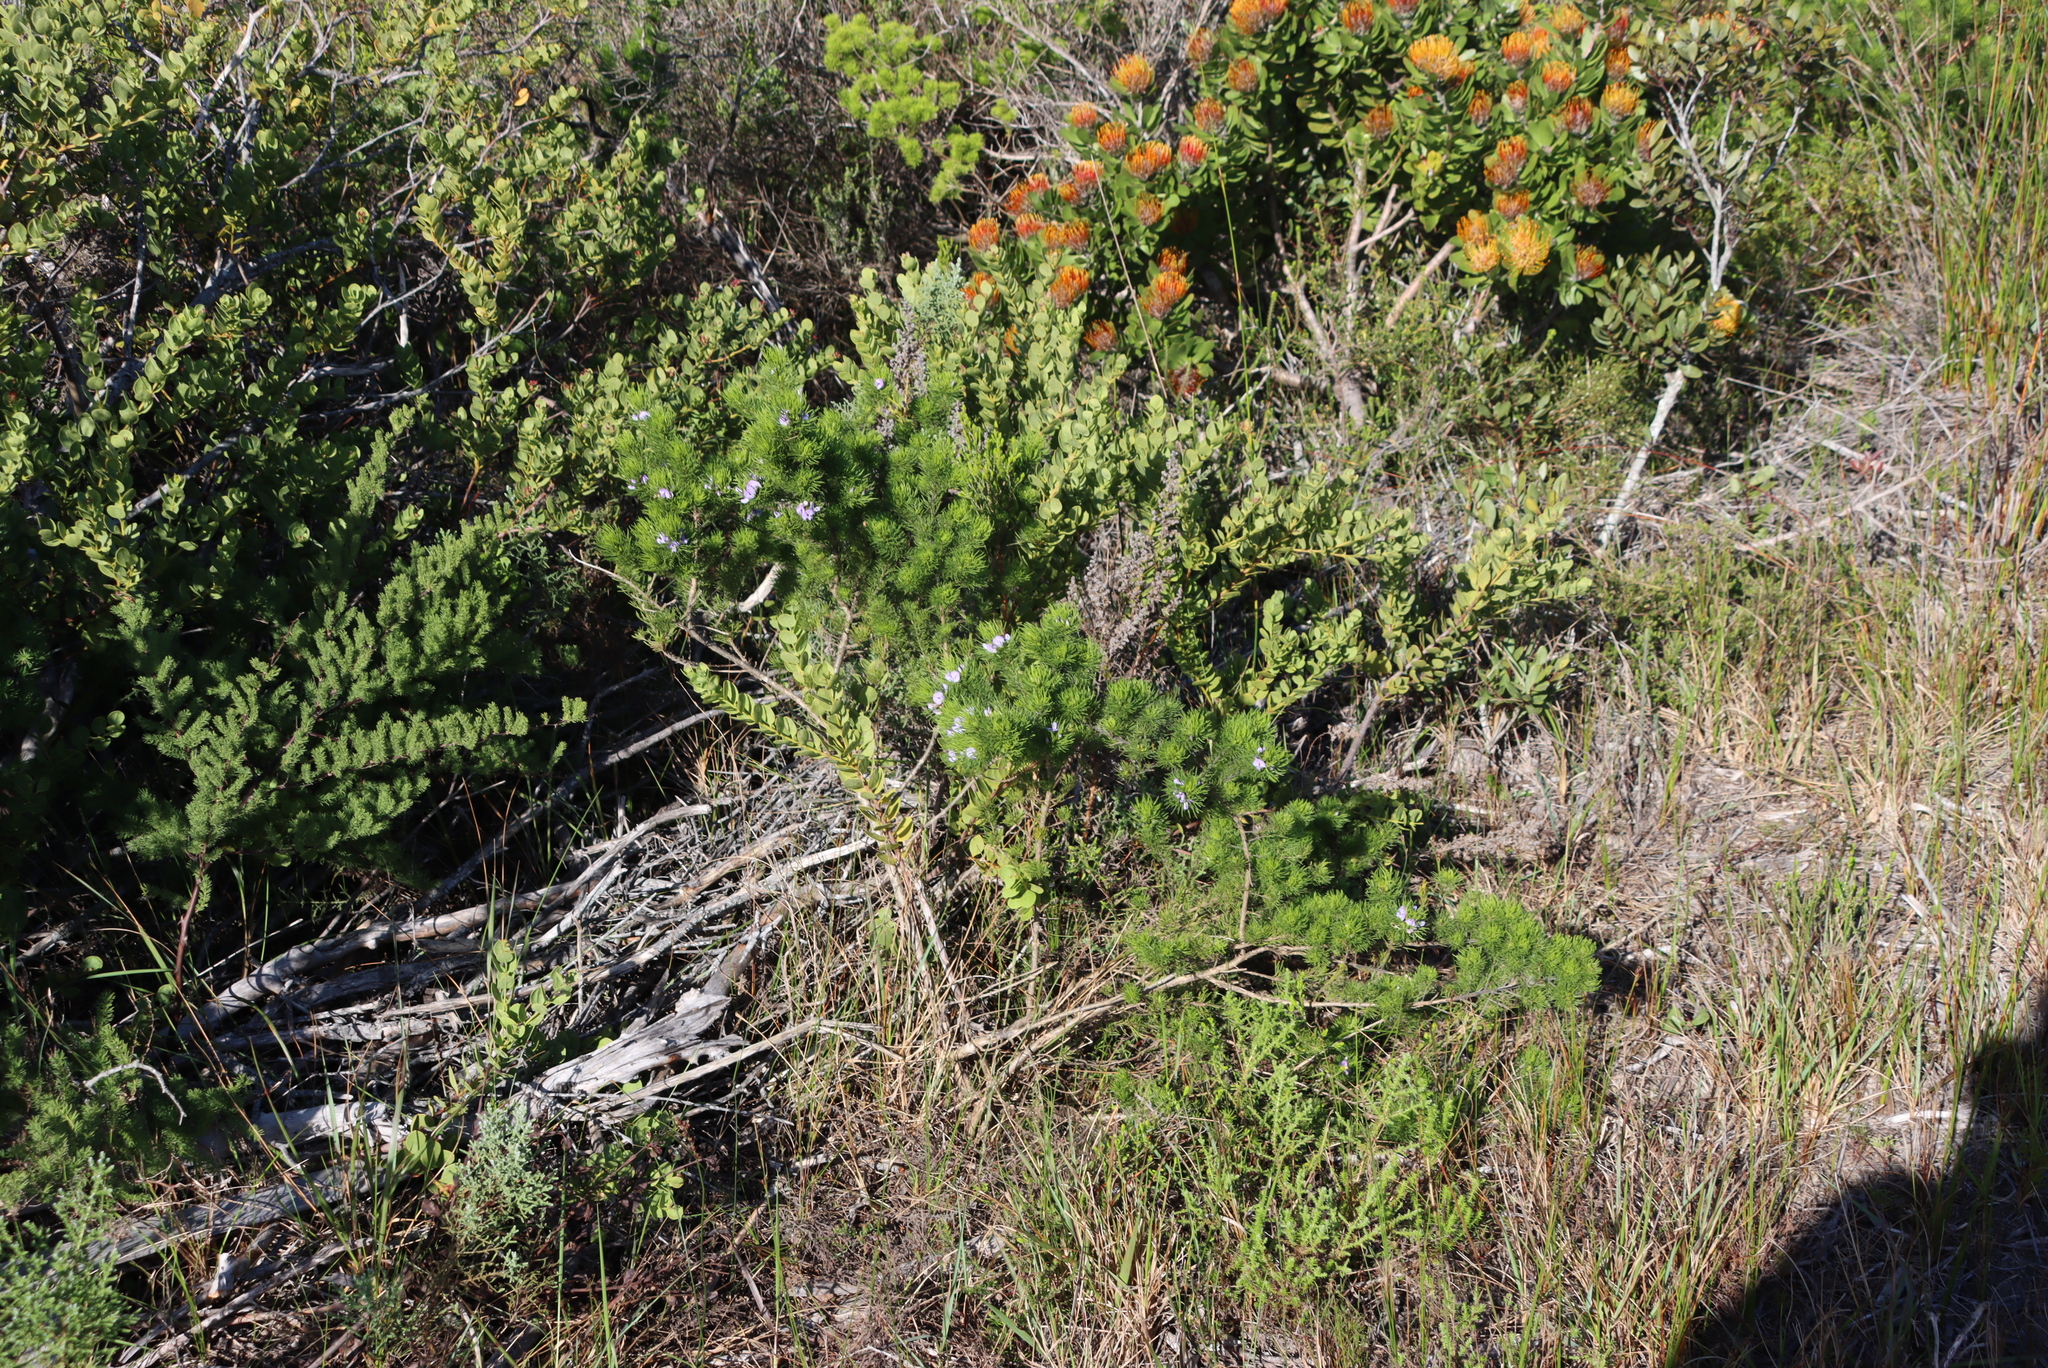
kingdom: Plantae
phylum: Tracheophyta
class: Magnoliopsida
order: Fabales
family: Fabaceae
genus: Psoralea
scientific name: Psoralea muirii
